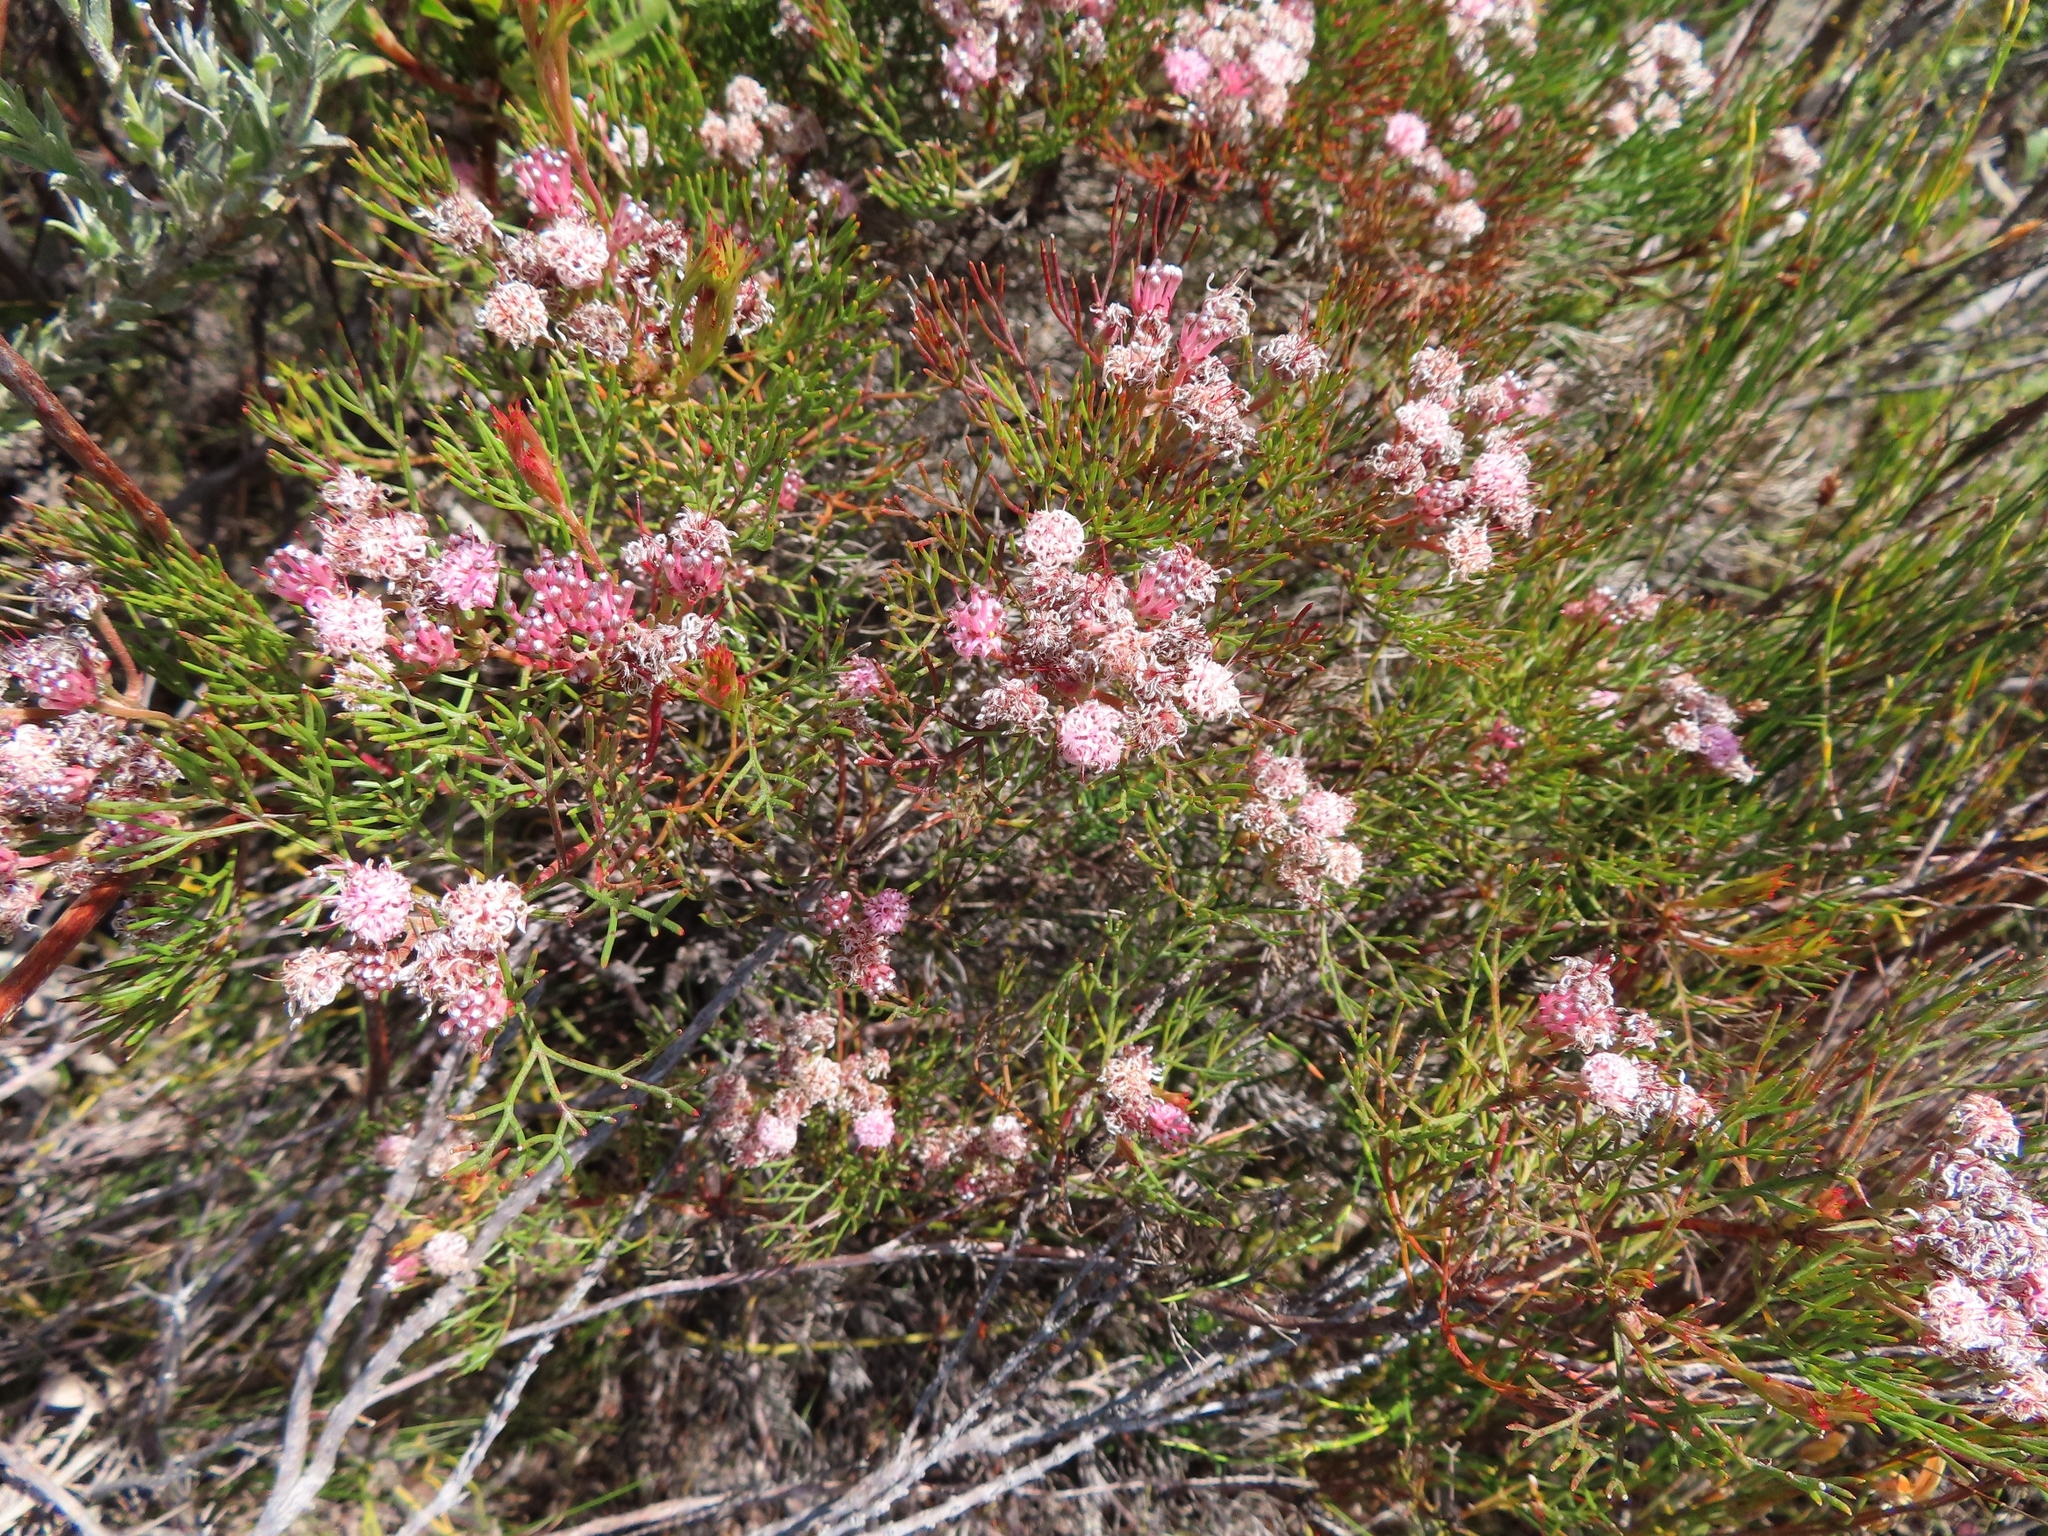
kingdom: Plantae
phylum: Tracheophyta
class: Magnoliopsida
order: Proteales
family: Proteaceae
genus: Serruria
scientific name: Serruria fasciflora
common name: Common pin spiderhead
